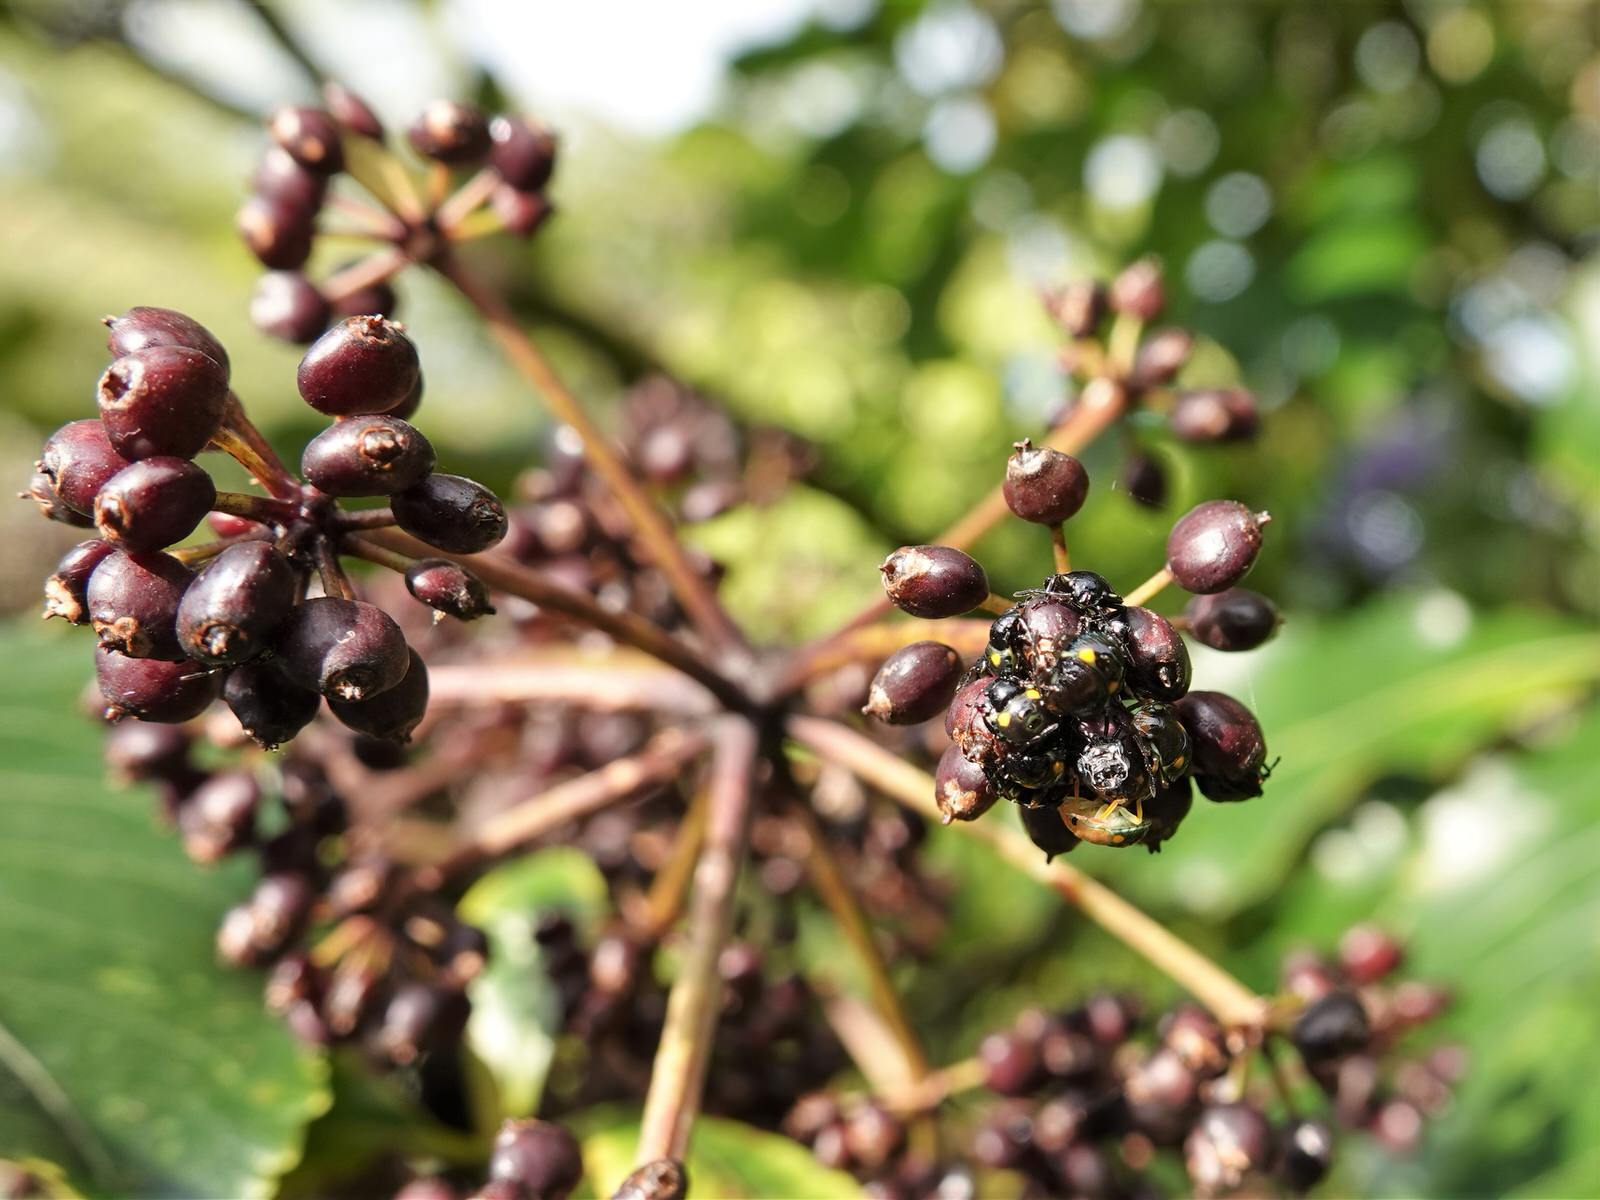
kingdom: Animalia
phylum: Arthropoda
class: Insecta
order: Hemiptera
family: Pentatomidae
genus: Glaucias
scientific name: Glaucias amyota
